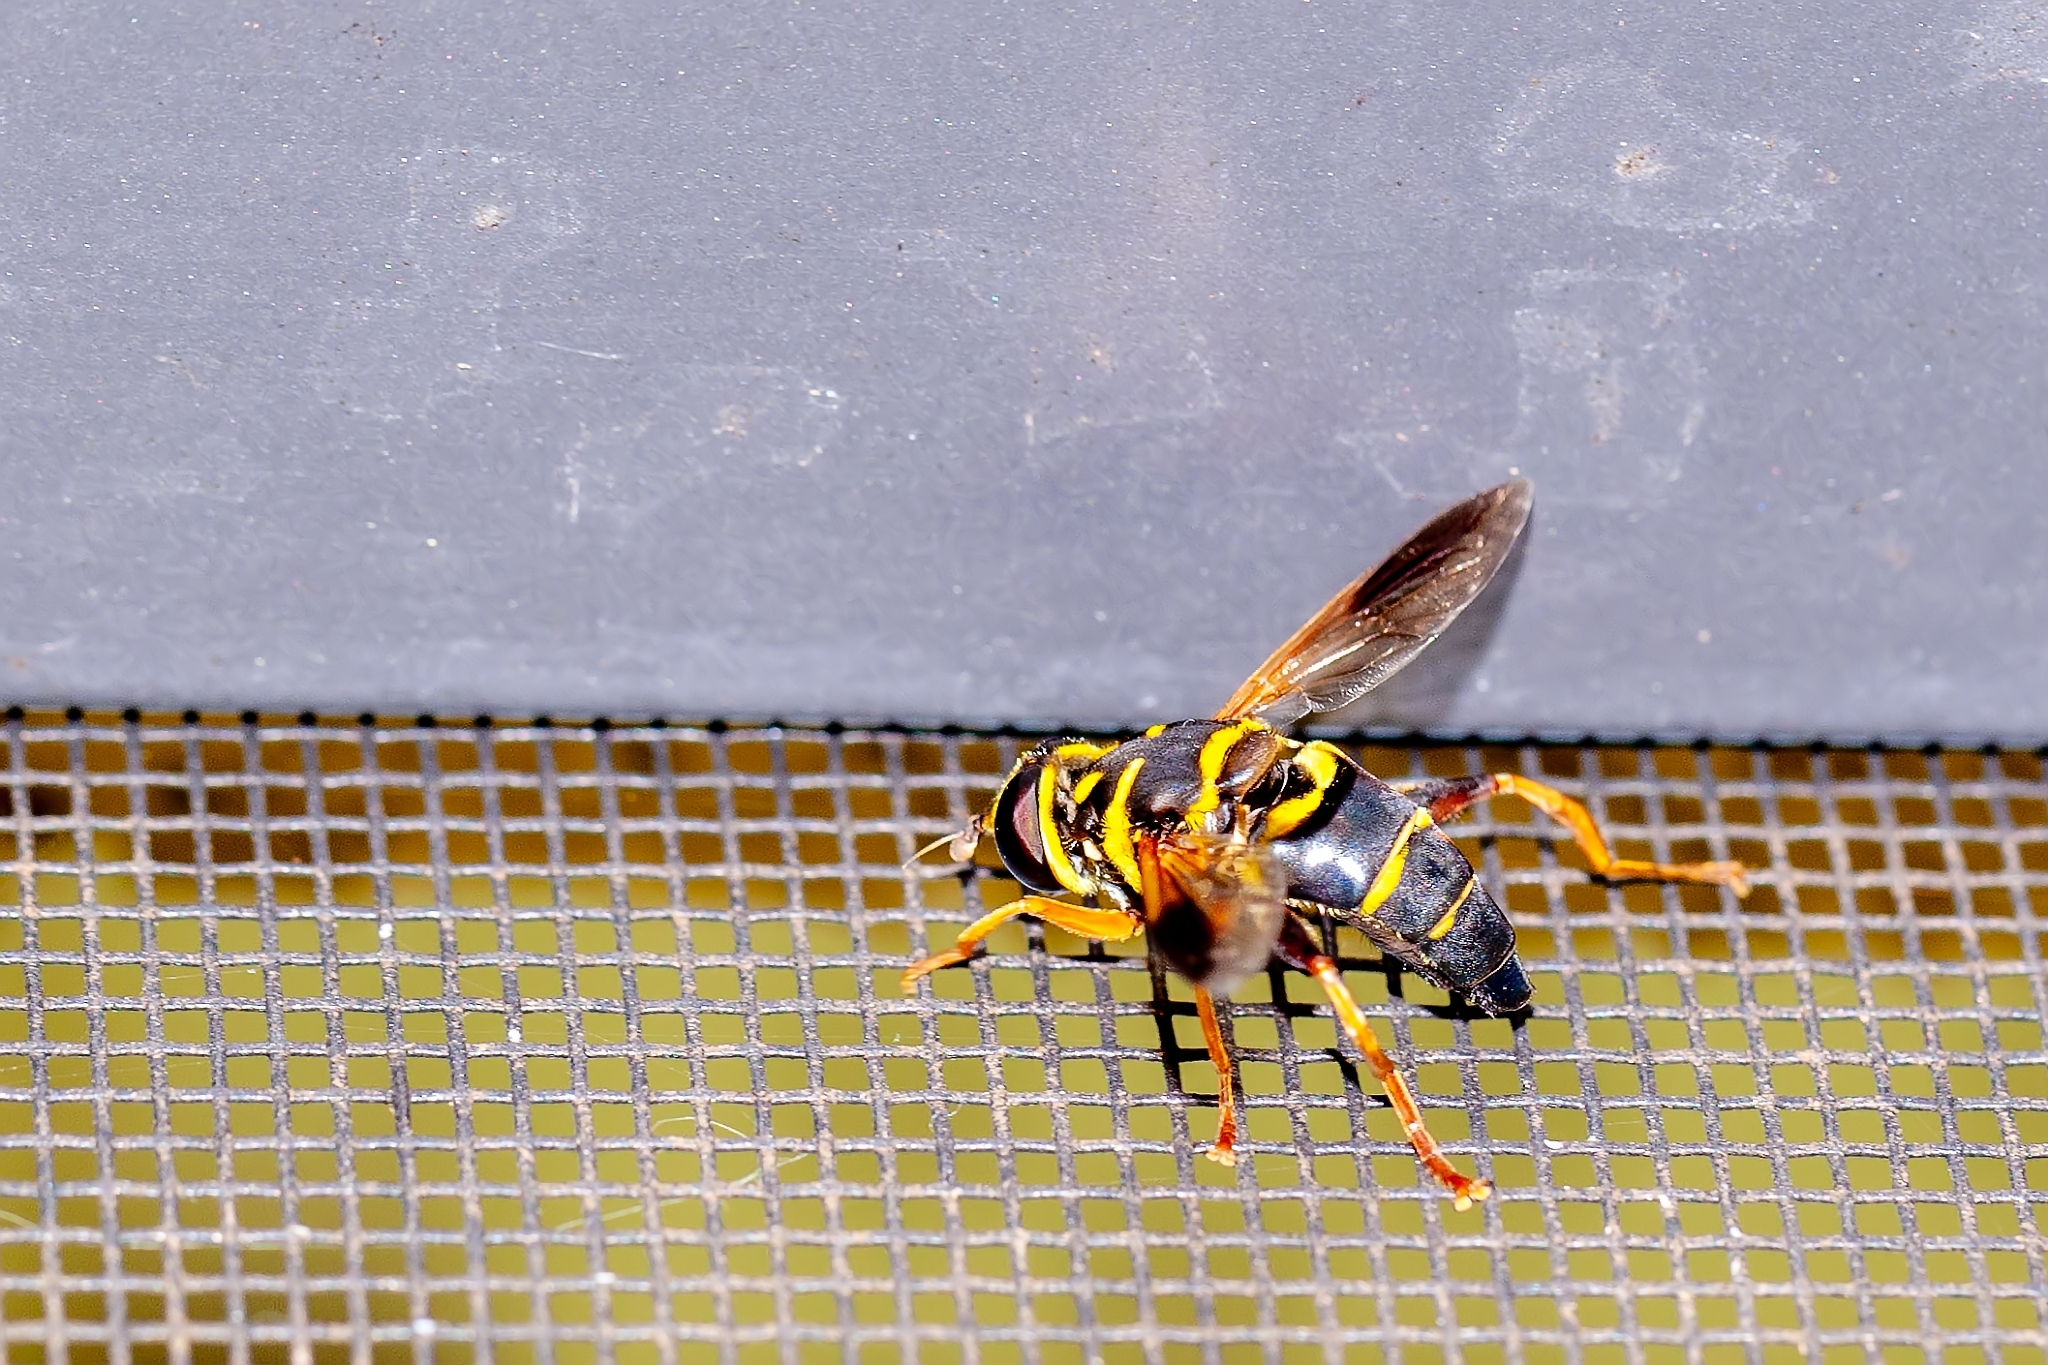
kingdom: Animalia
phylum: Arthropoda
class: Insecta
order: Diptera
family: Syrphidae
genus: Meromacrus
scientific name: Meromacrus acutus
